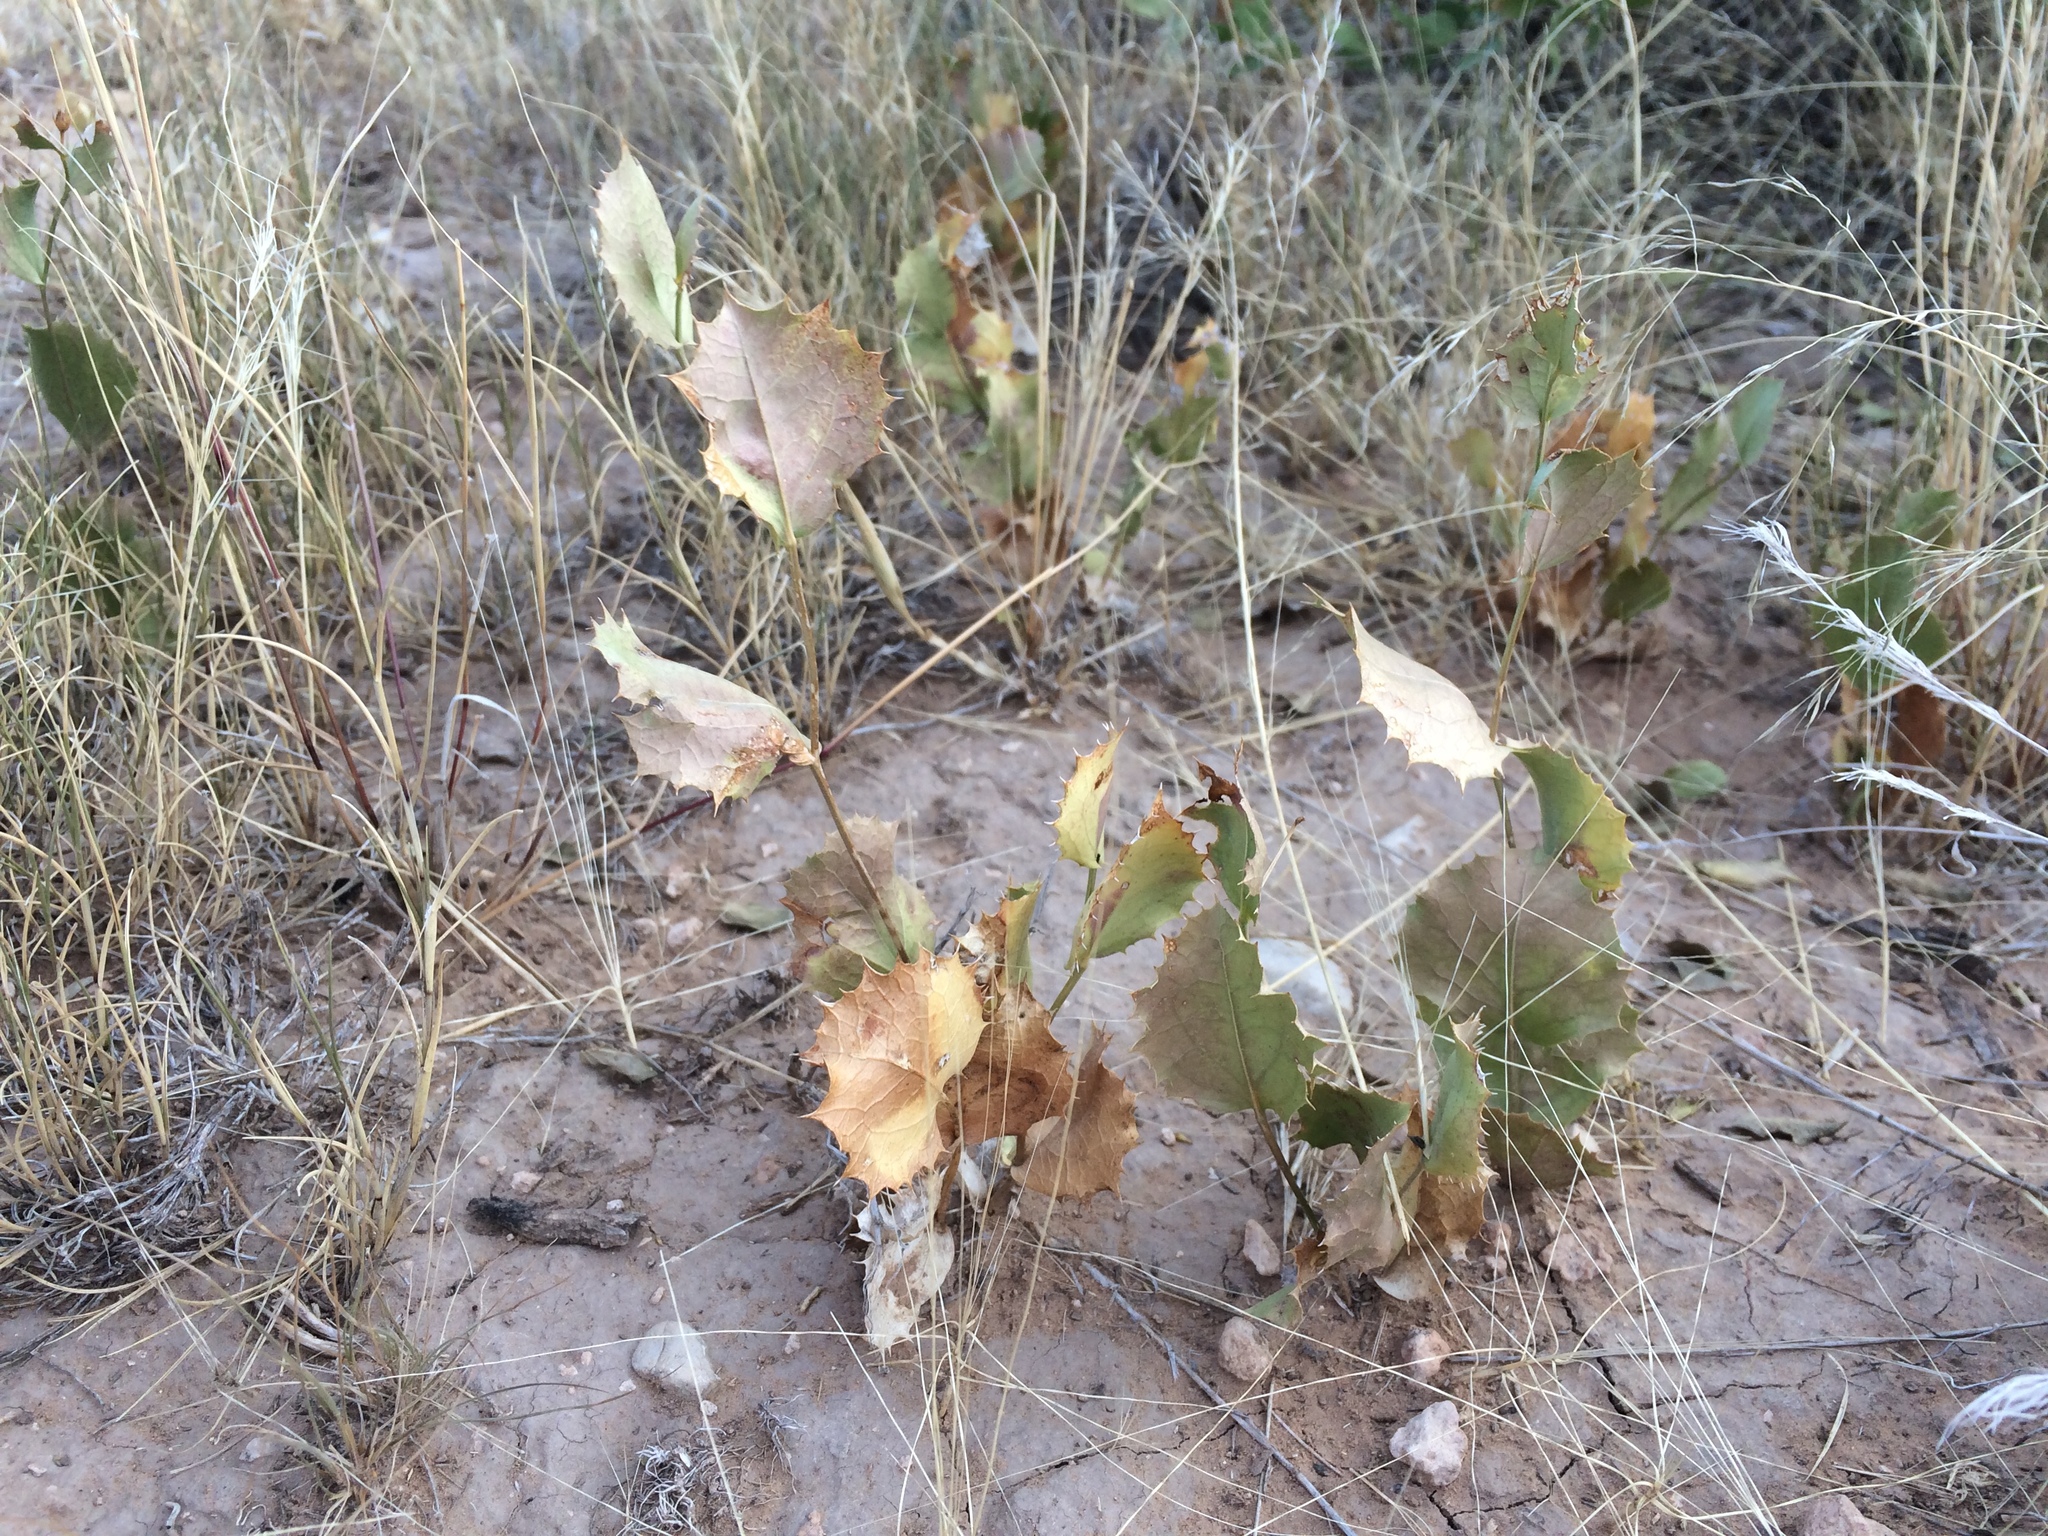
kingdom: Plantae
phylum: Tracheophyta
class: Magnoliopsida
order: Asterales
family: Asteraceae
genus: Acourtia
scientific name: Acourtia nana
